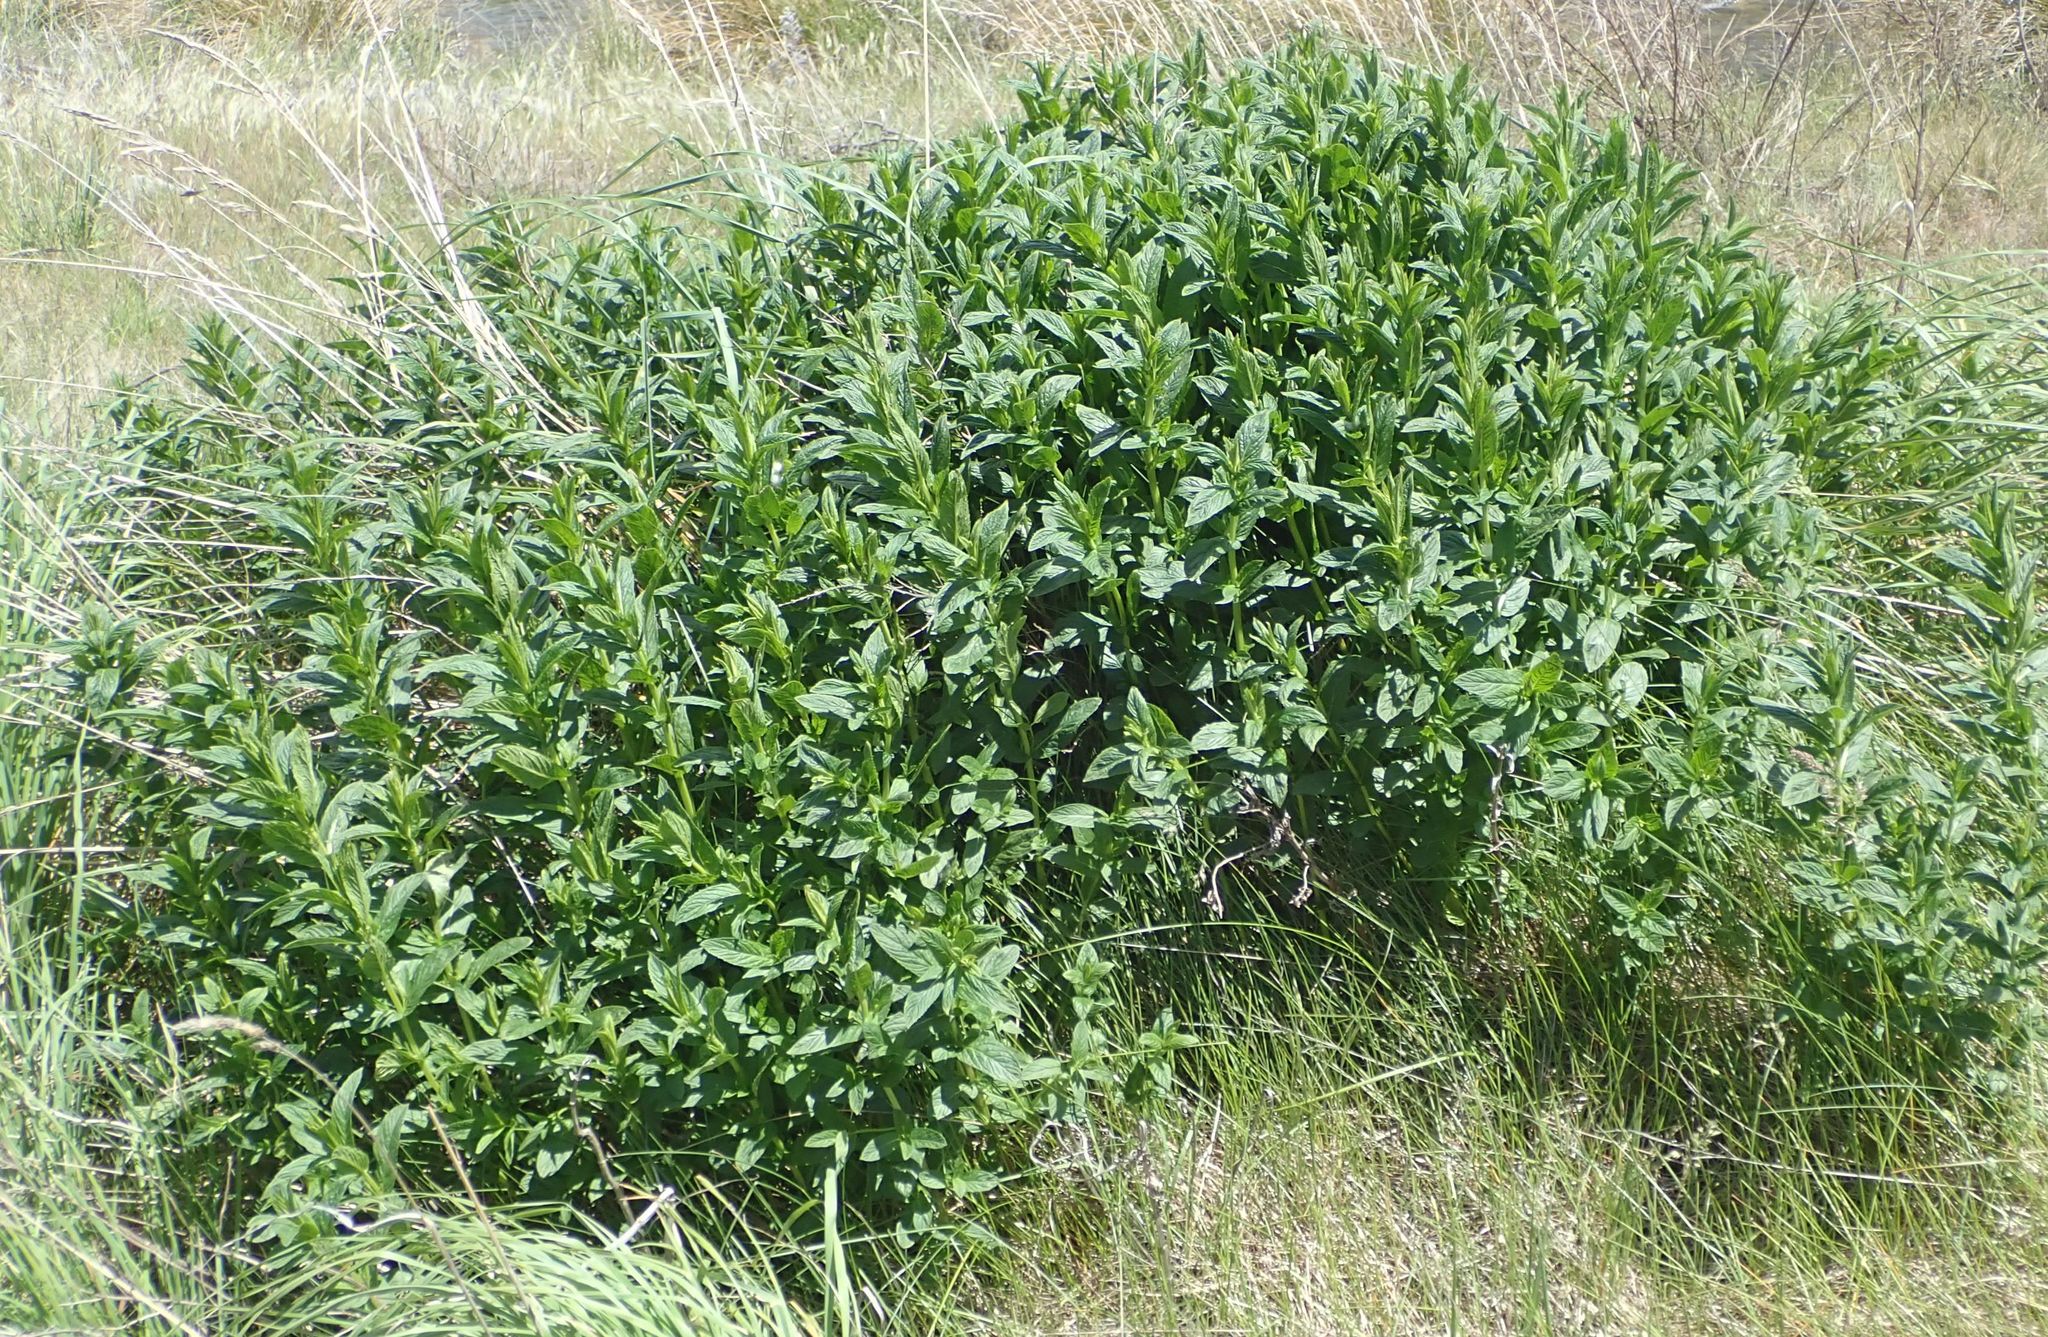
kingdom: Plantae
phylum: Tracheophyta
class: Magnoliopsida
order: Lamiales
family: Lamiaceae
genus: Mentha
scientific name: Mentha spicata
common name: Spearmint
